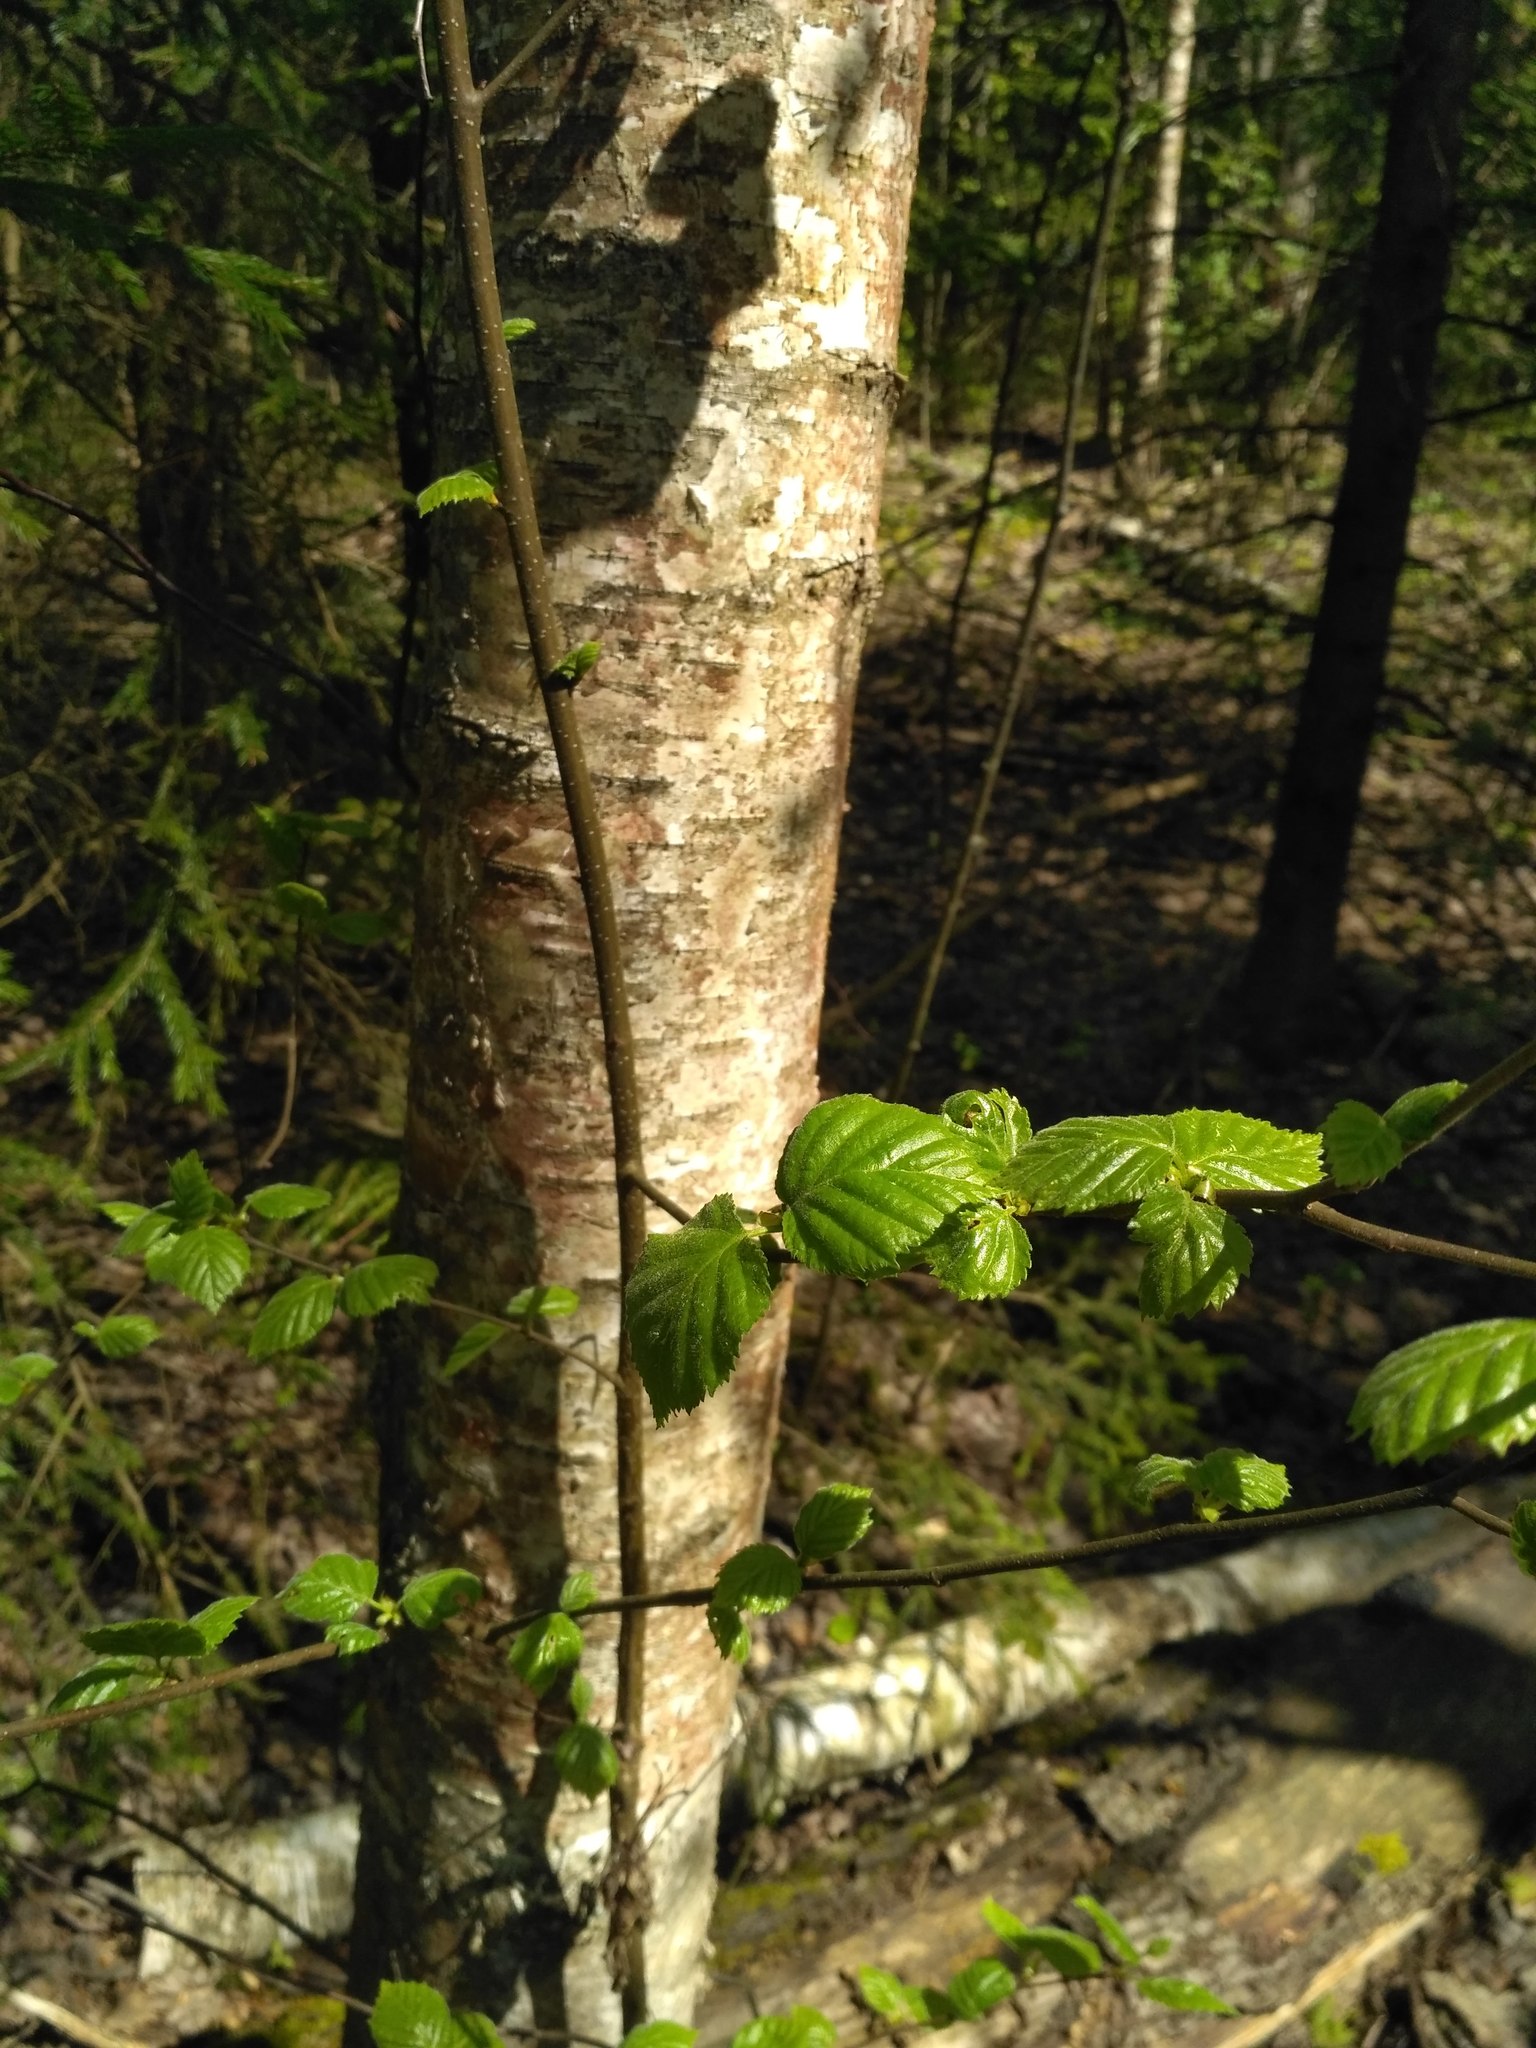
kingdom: Plantae
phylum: Tracheophyta
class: Magnoliopsida
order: Fagales
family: Betulaceae
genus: Betula
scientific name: Betula pubescens
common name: Downy birch
